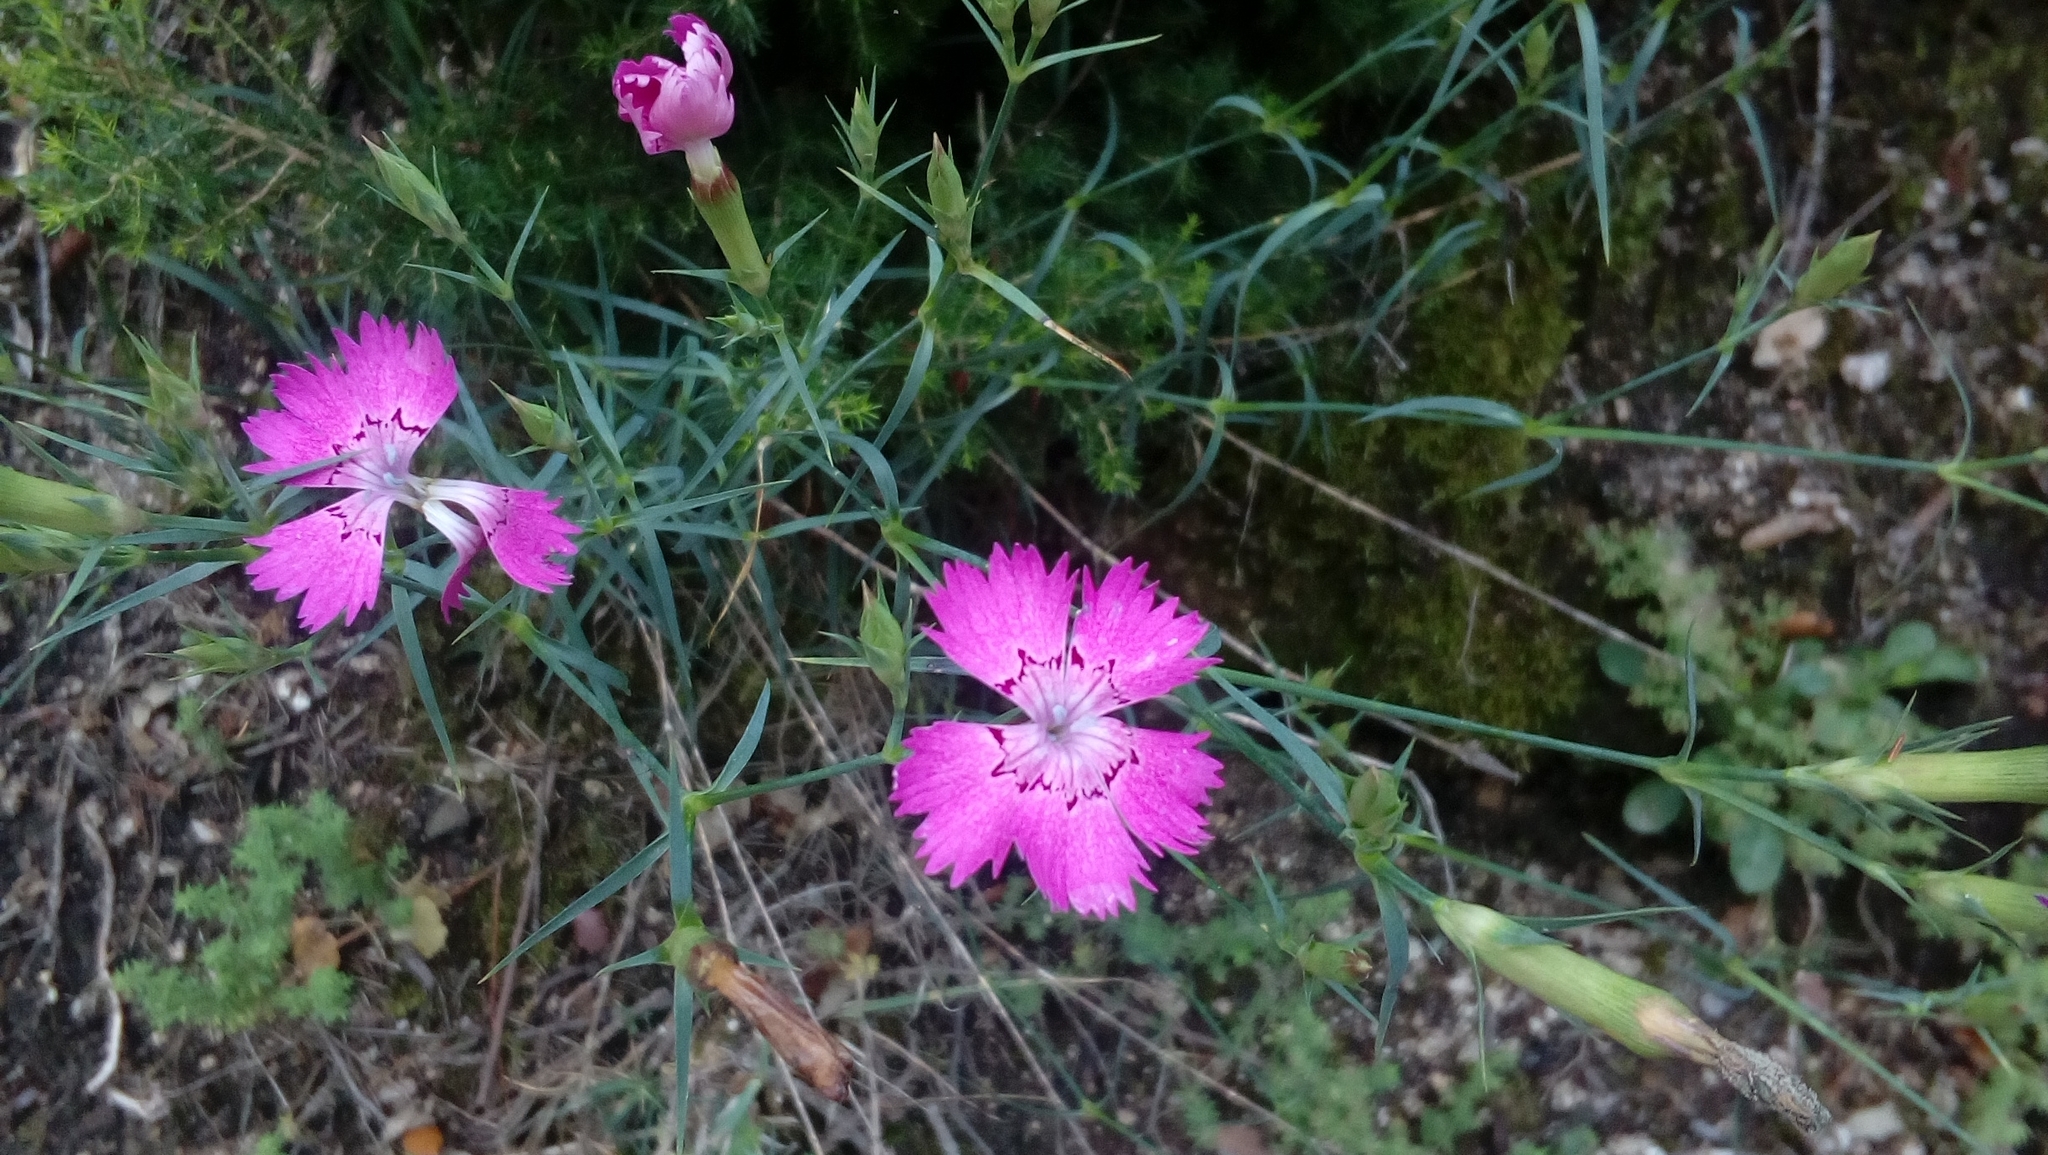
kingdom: Plantae
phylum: Tracheophyta
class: Magnoliopsida
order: Caryophyllales
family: Caryophyllaceae
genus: Dianthus
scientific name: Dianthus seguieri
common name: Ragged pink
